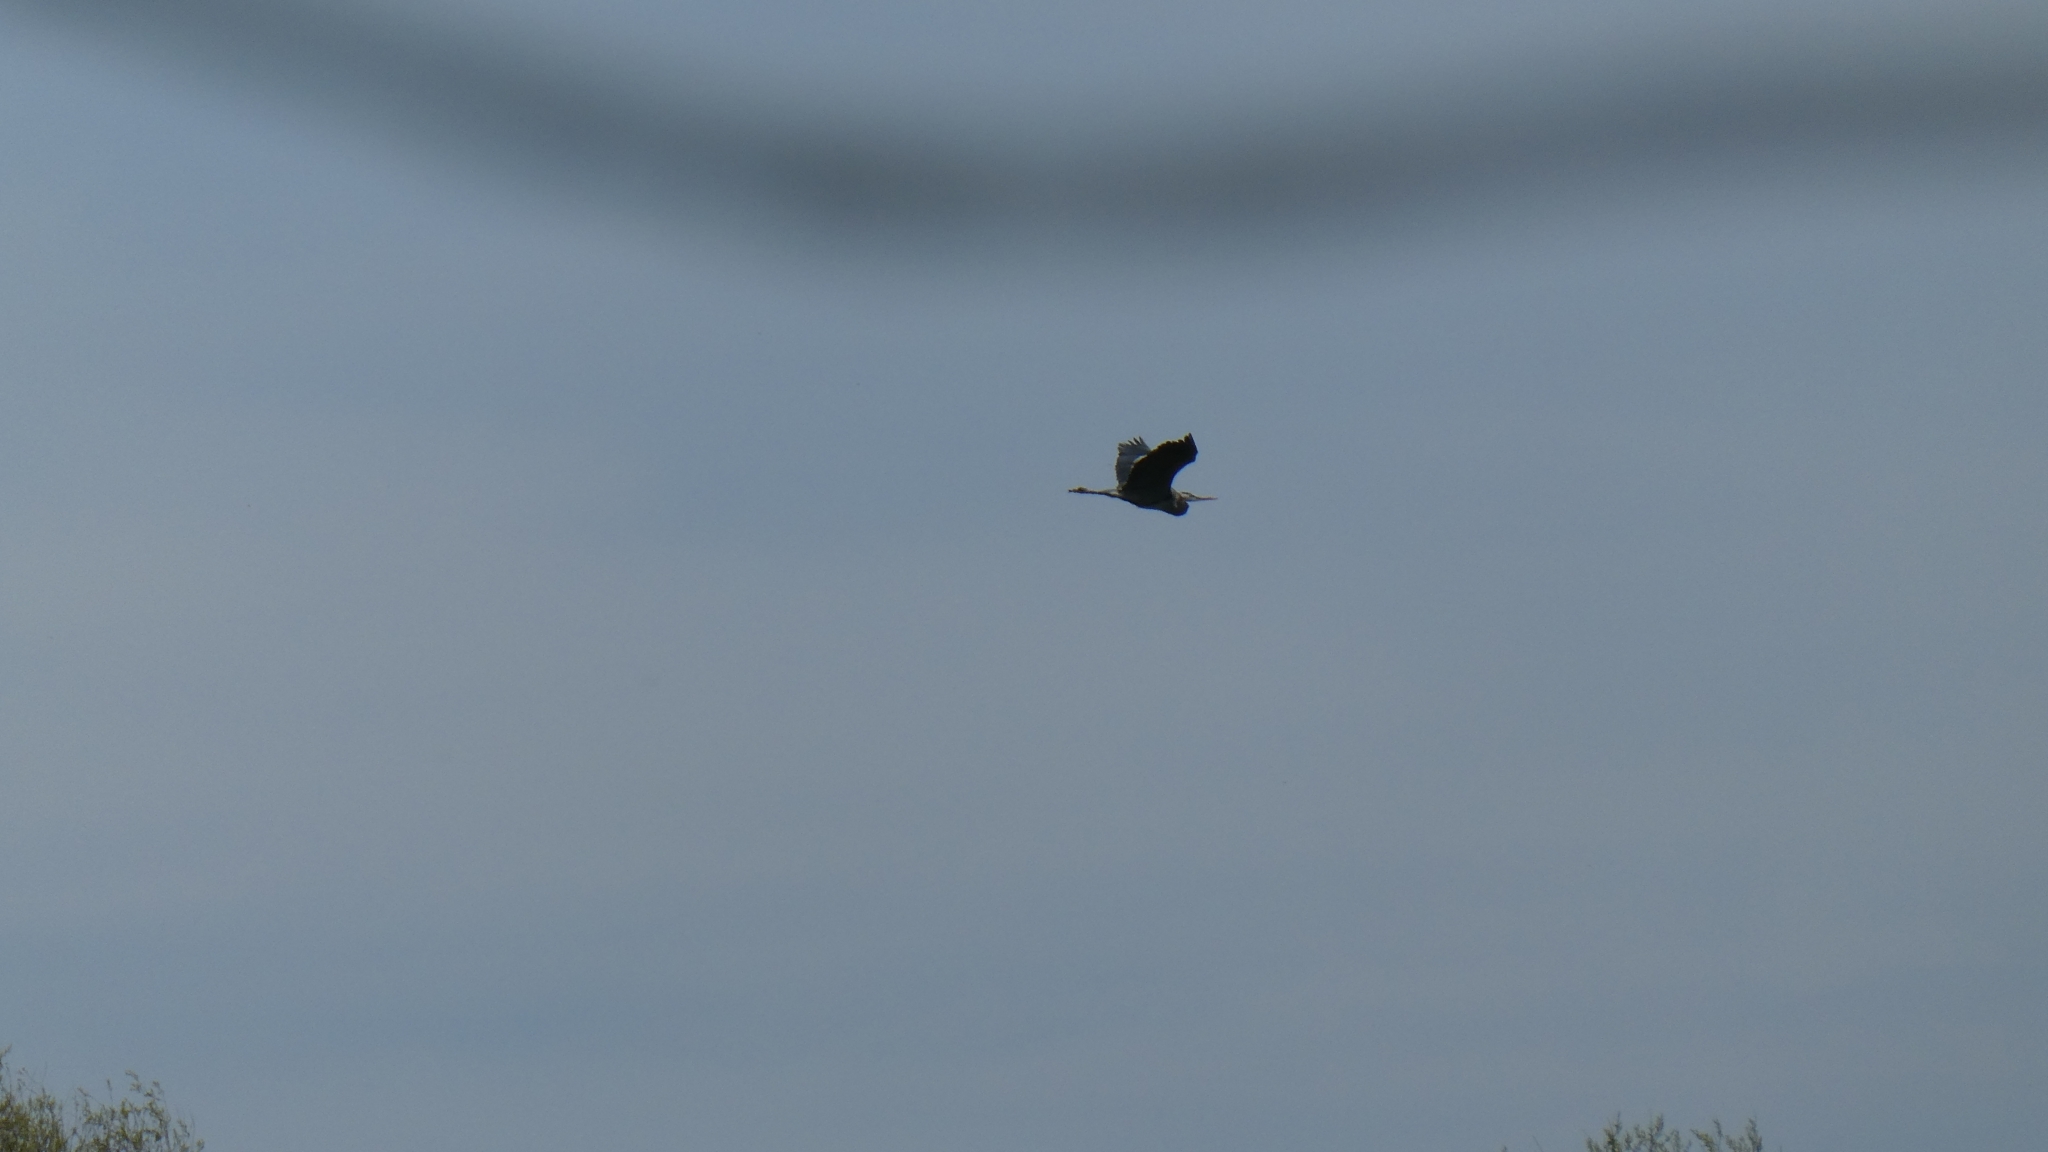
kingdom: Animalia
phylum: Chordata
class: Aves
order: Pelecaniformes
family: Ardeidae
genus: Ardea
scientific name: Ardea herodias
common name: Great blue heron
